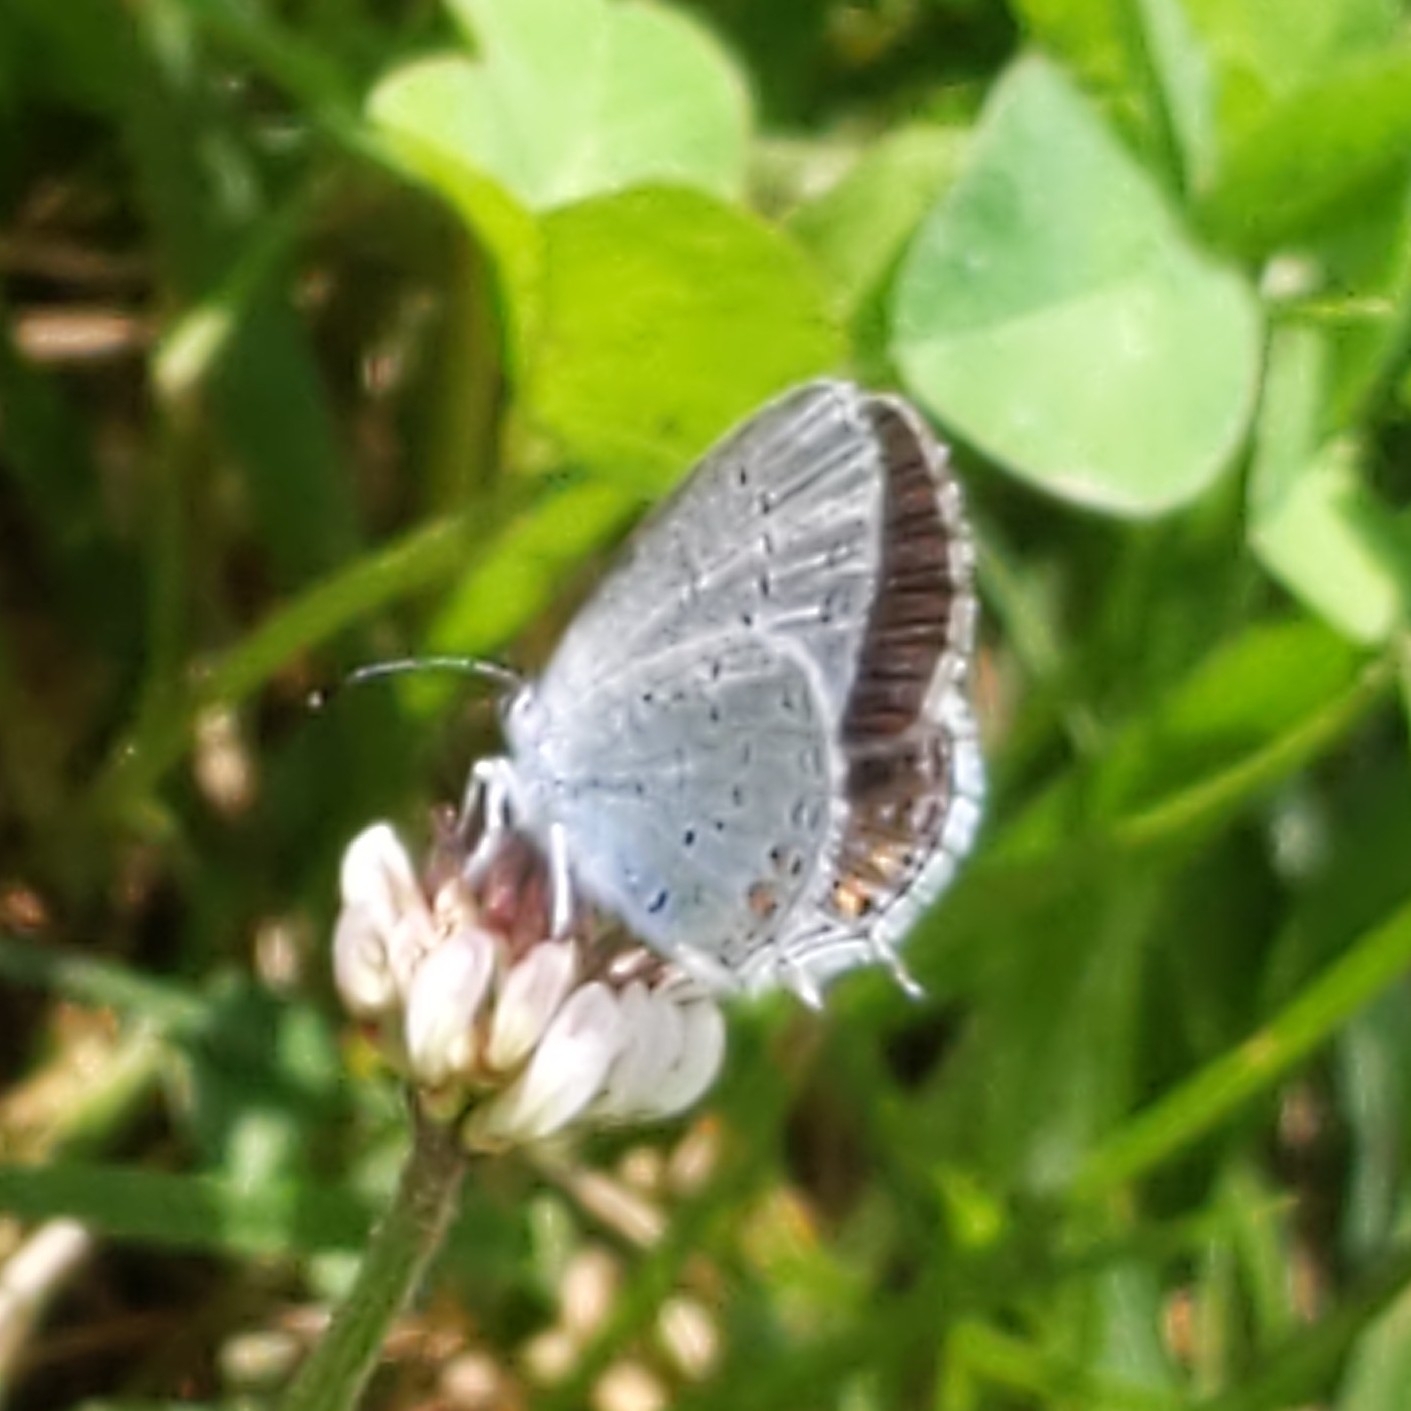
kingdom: Animalia
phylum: Arthropoda
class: Insecta
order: Lepidoptera
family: Lycaenidae
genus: Elkalyce
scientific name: Elkalyce comyntas
